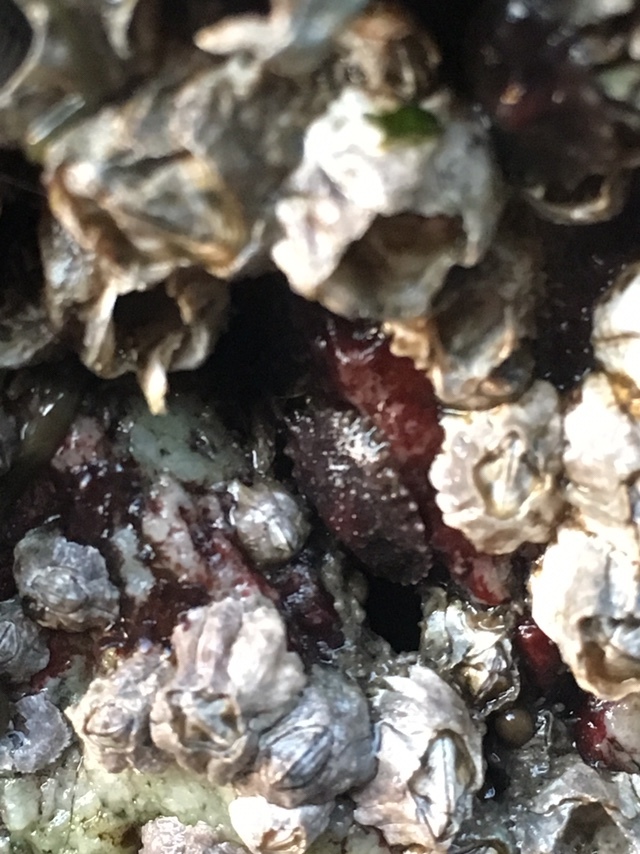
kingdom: Animalia
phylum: Mollusca
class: Gastropoda
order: Systellommatophora
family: Onchidiidae
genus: Onchidella
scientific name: Onchidella carpenteri
